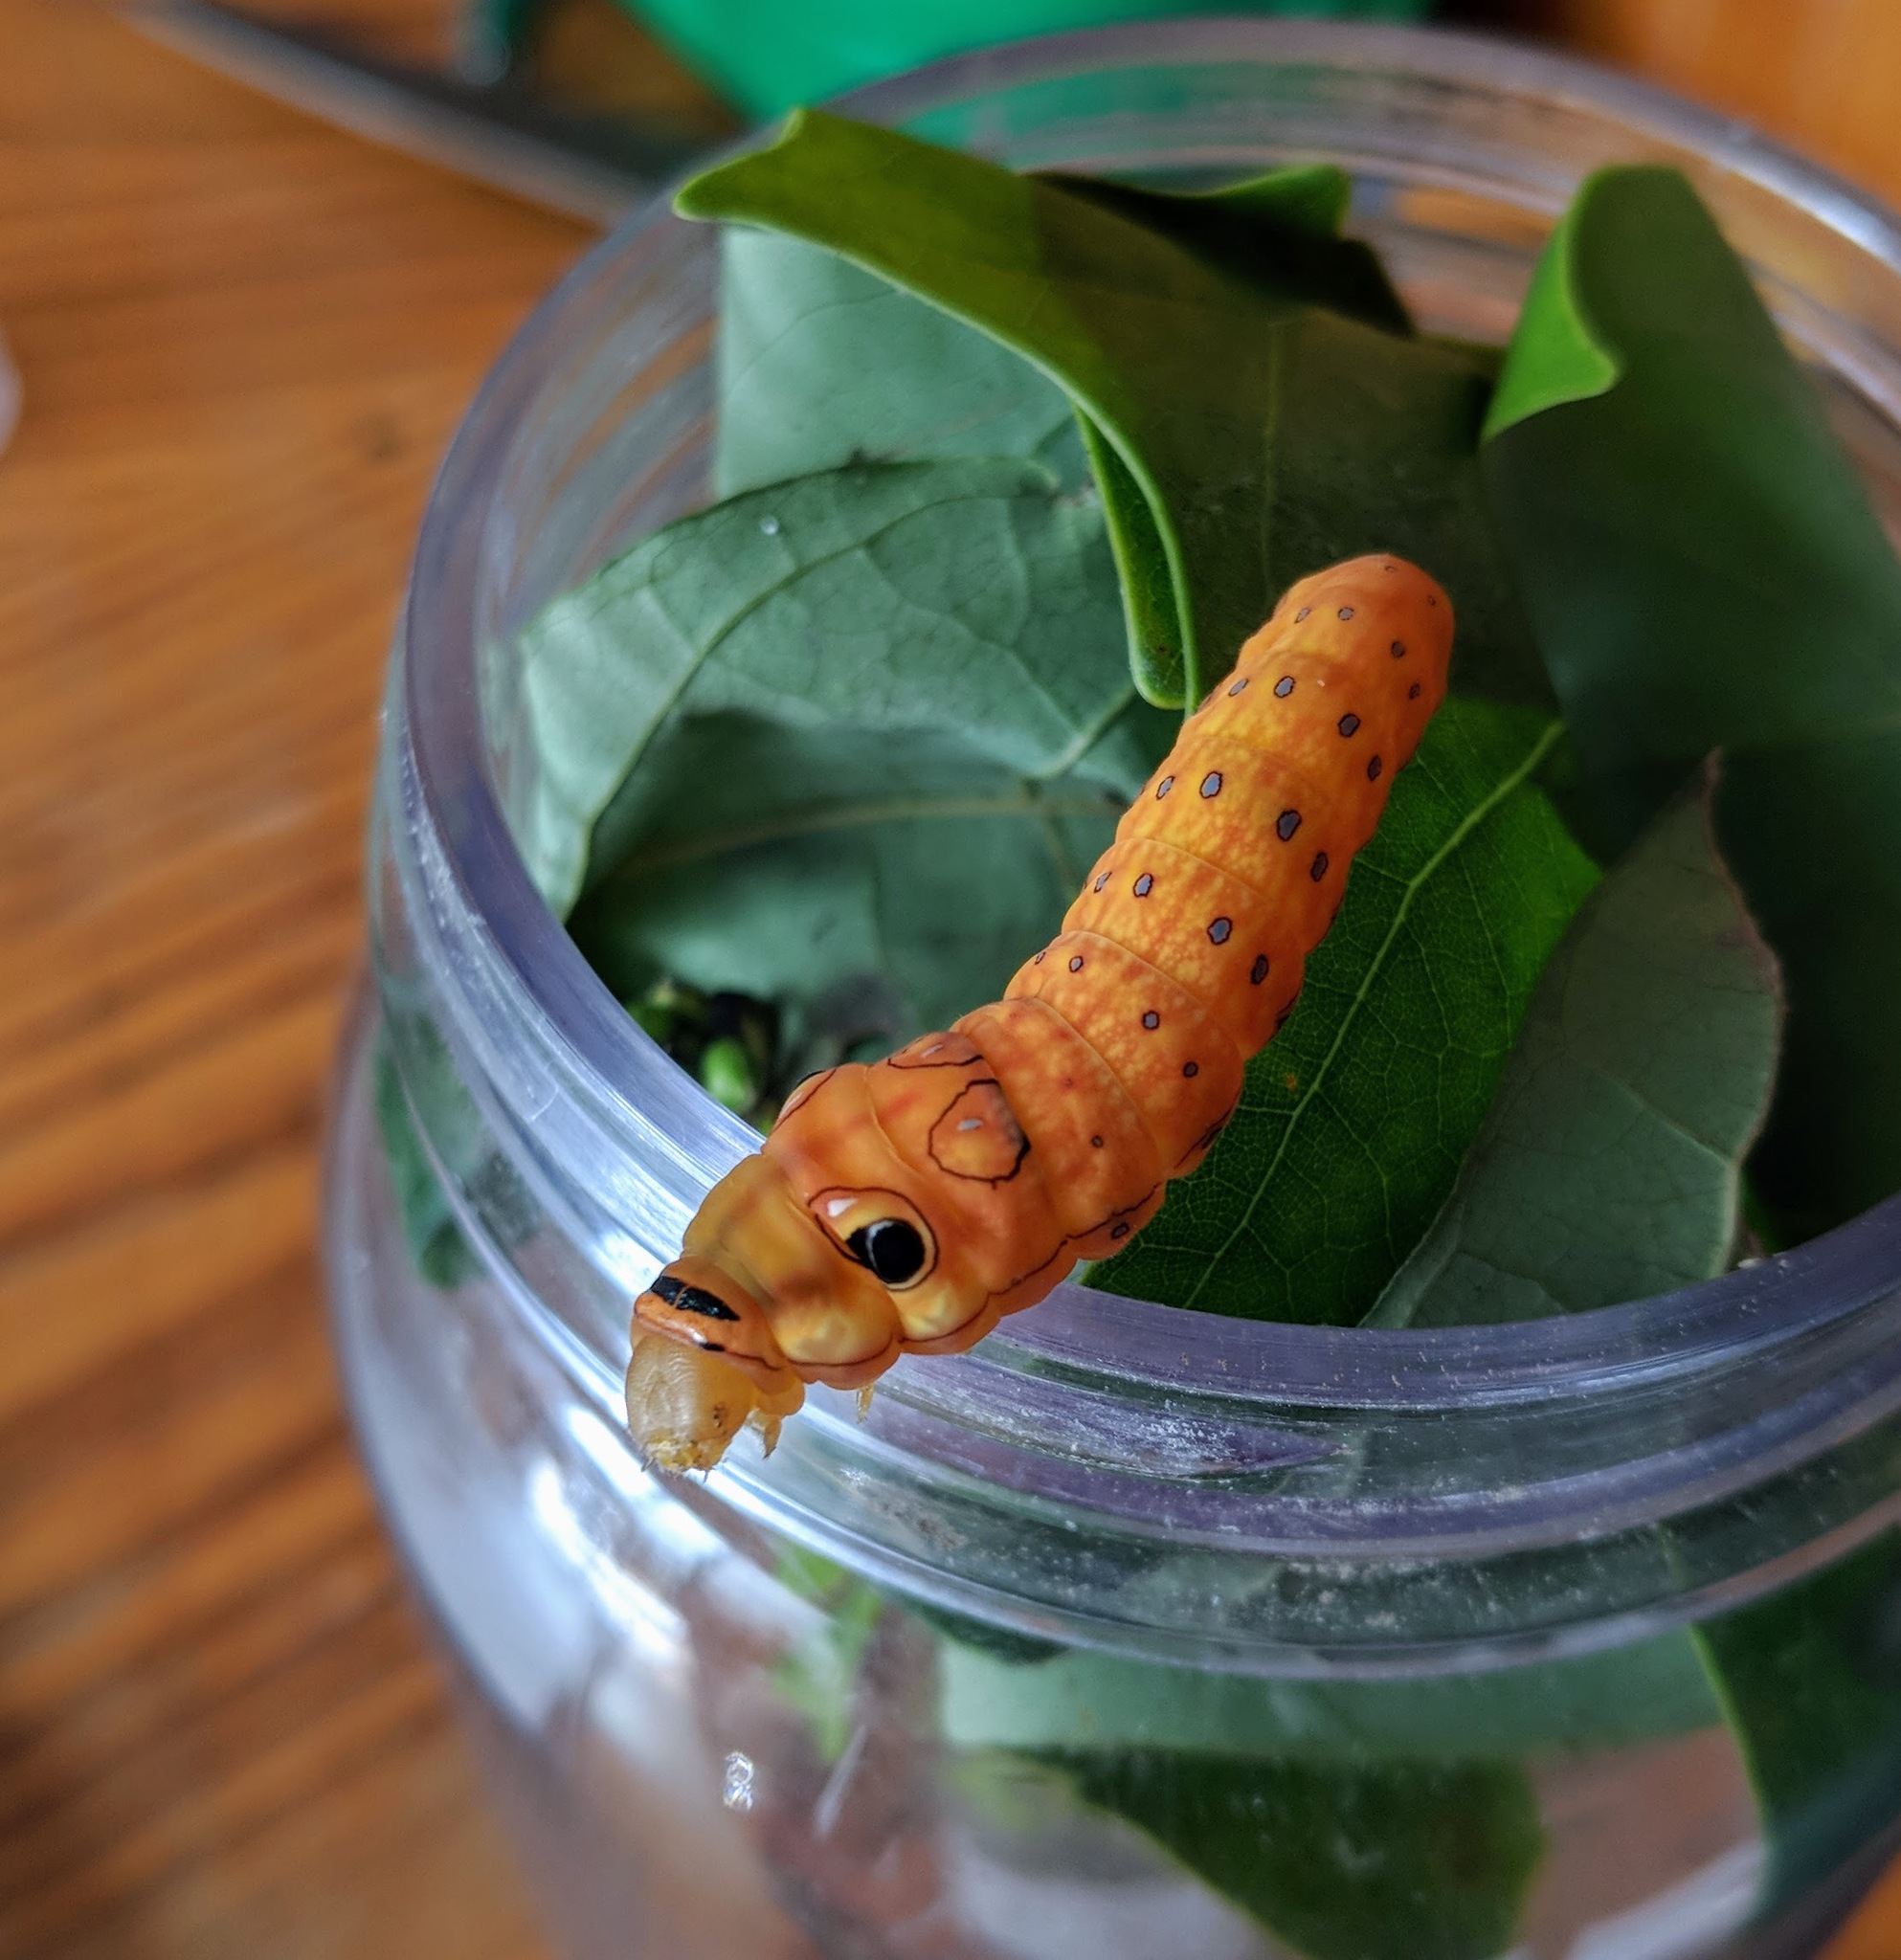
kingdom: Animalia
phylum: Arthropoda
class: Insecta
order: Lepidoptera
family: Papilionidae
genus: Papilio
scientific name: Papilio troilus
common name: Spicebush swallowtail
